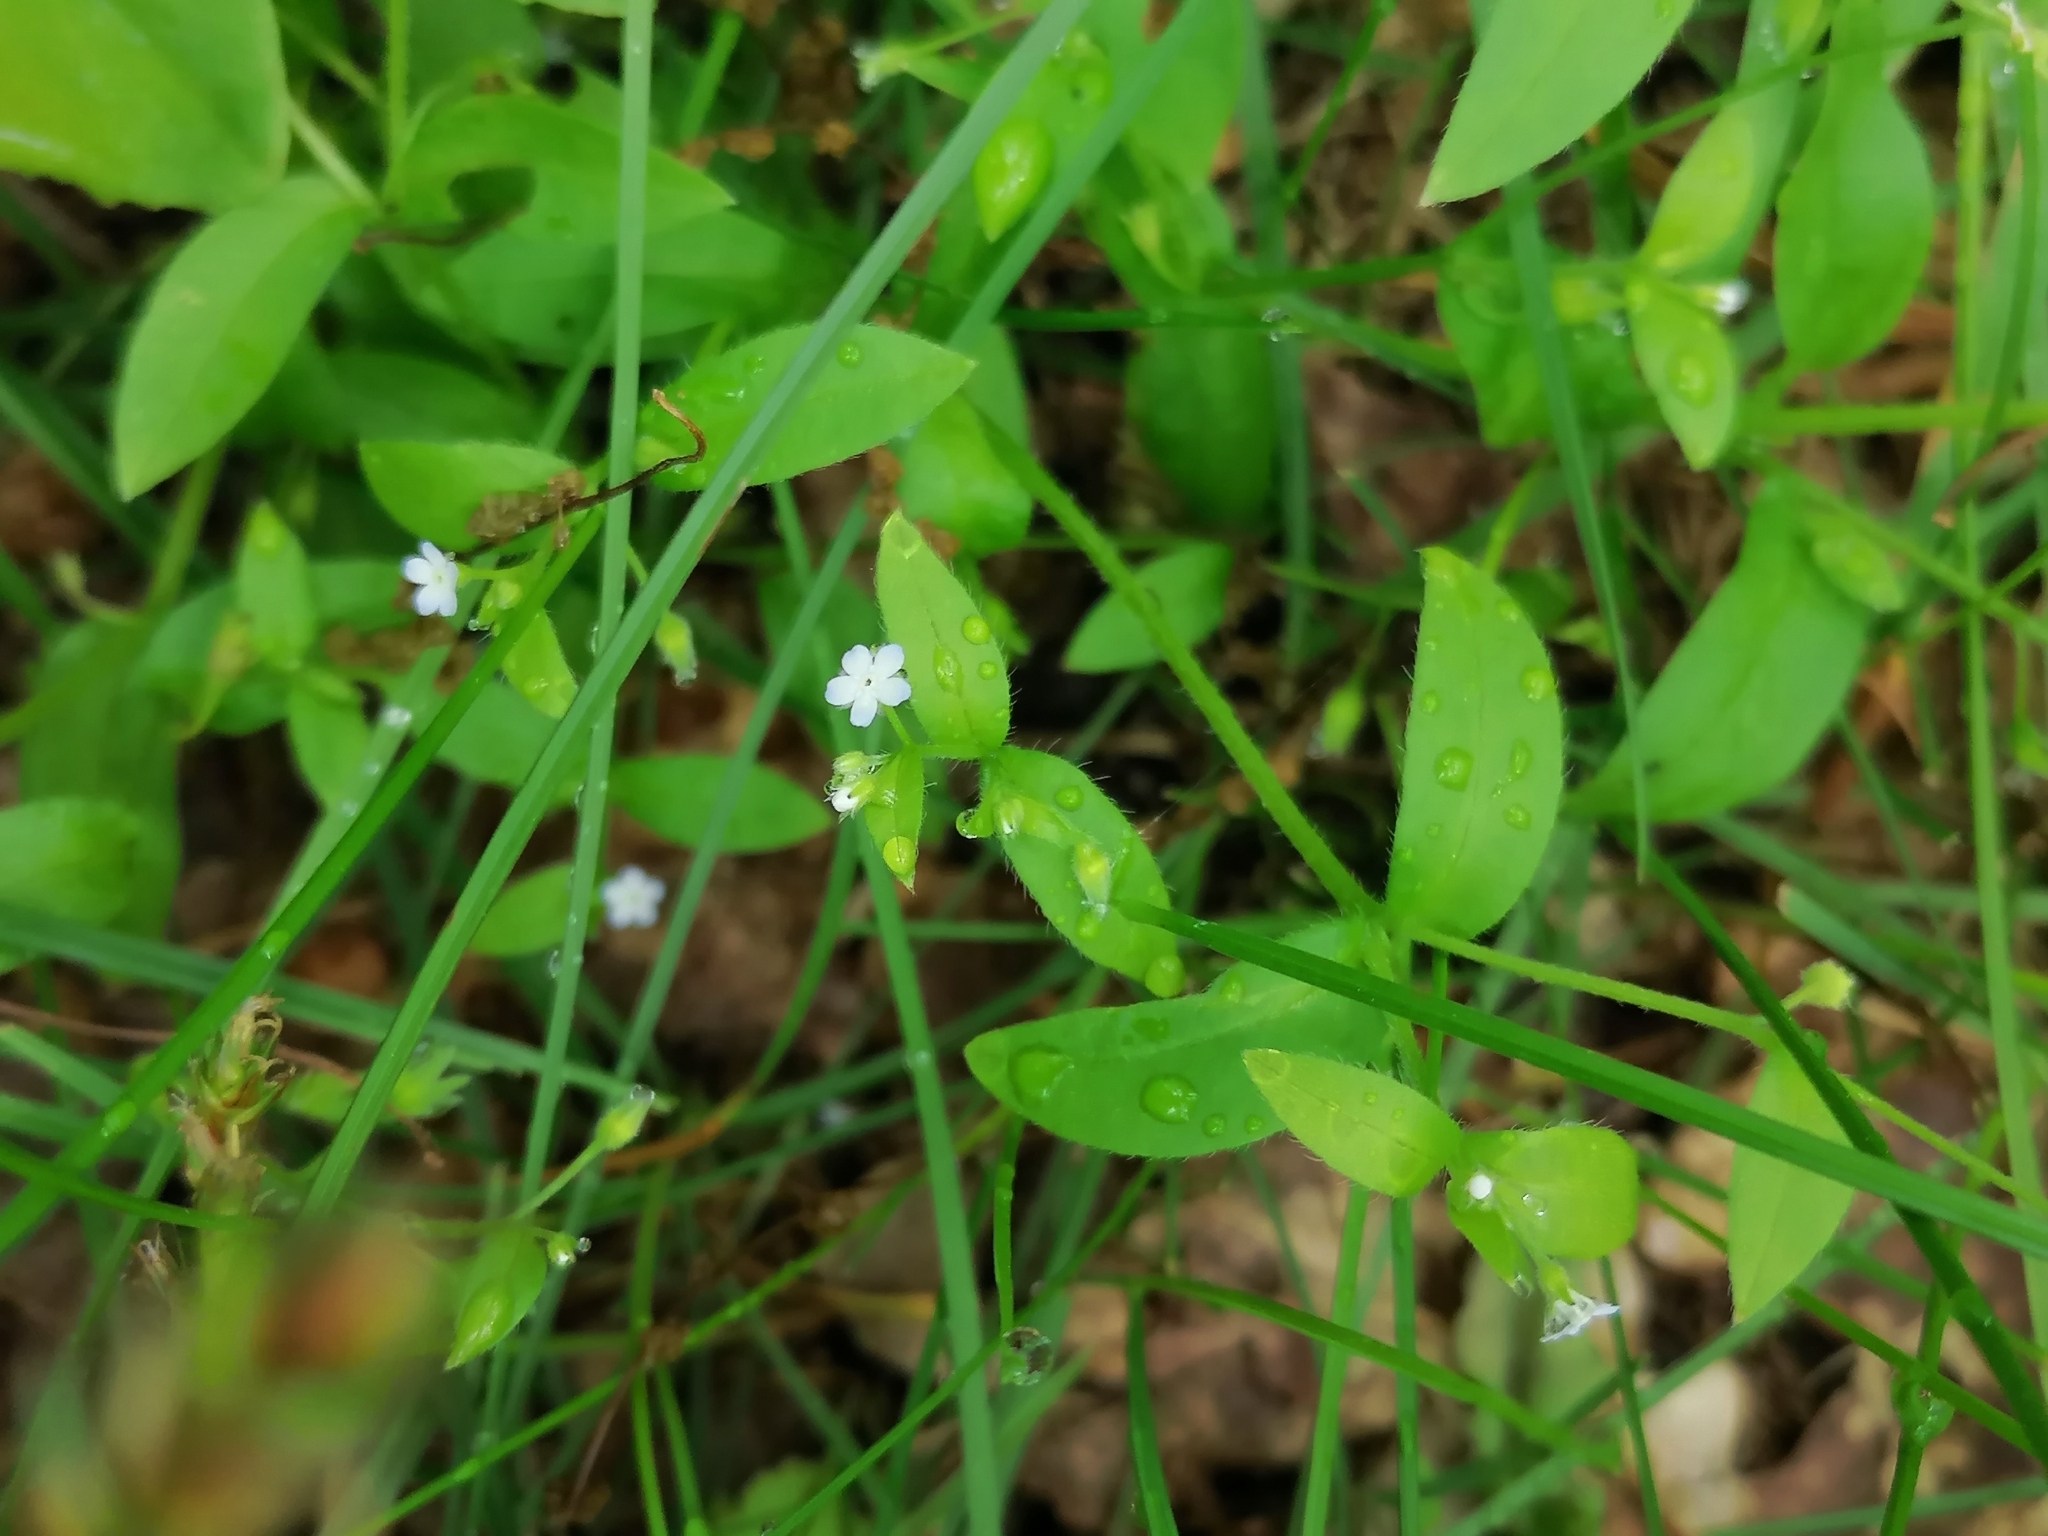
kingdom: Plantae
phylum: Tracheophyta
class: Magnoliopsida
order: Boraginales
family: Boraginaceae
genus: Myosotis
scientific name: Myosotis sparsiflora
